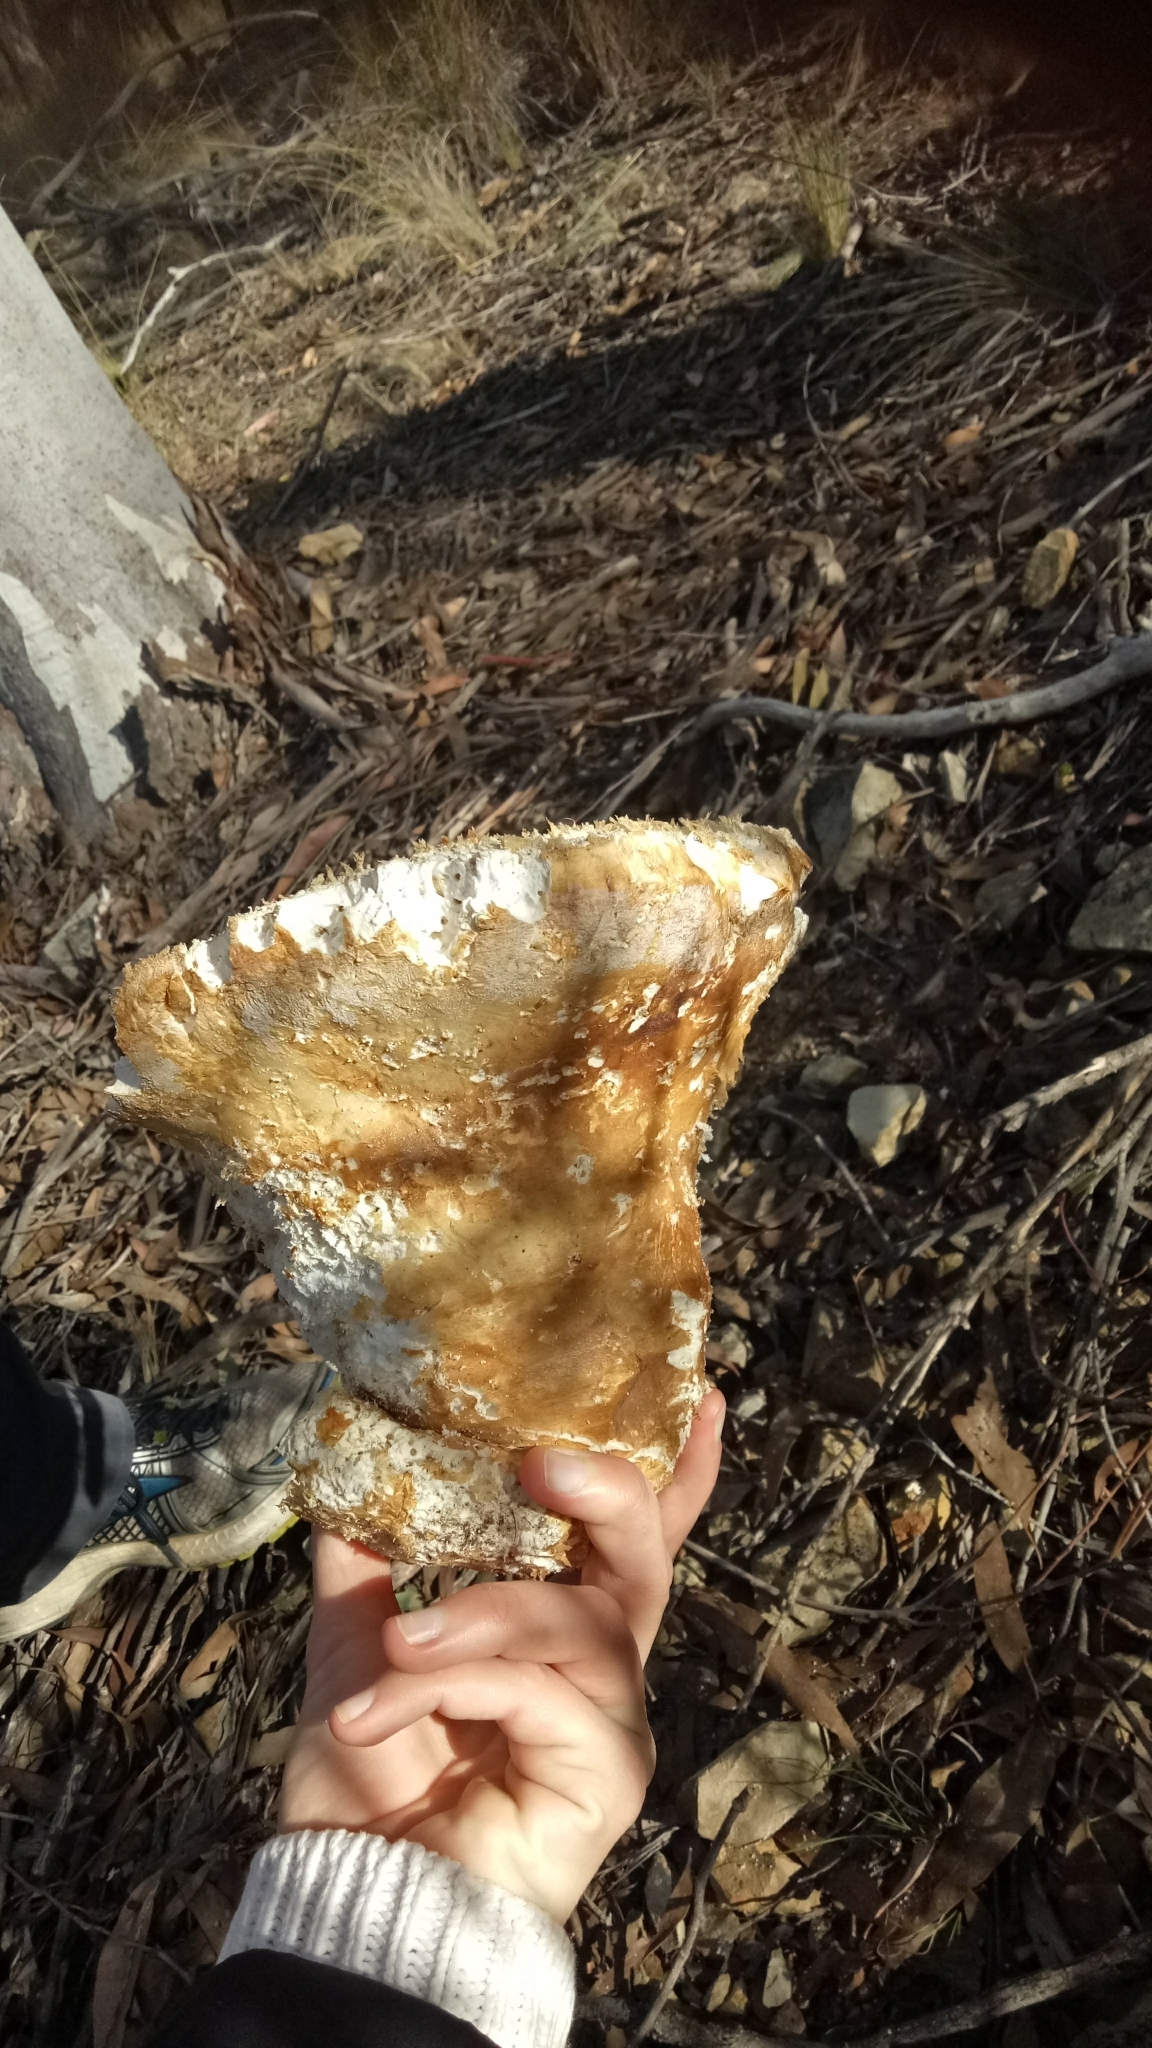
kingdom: Fungi
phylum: Basidiomycota
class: Agaricomycetes
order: Polyporales
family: Laetiporaceae
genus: Laetiporus
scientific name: Laetiporus portentosus
